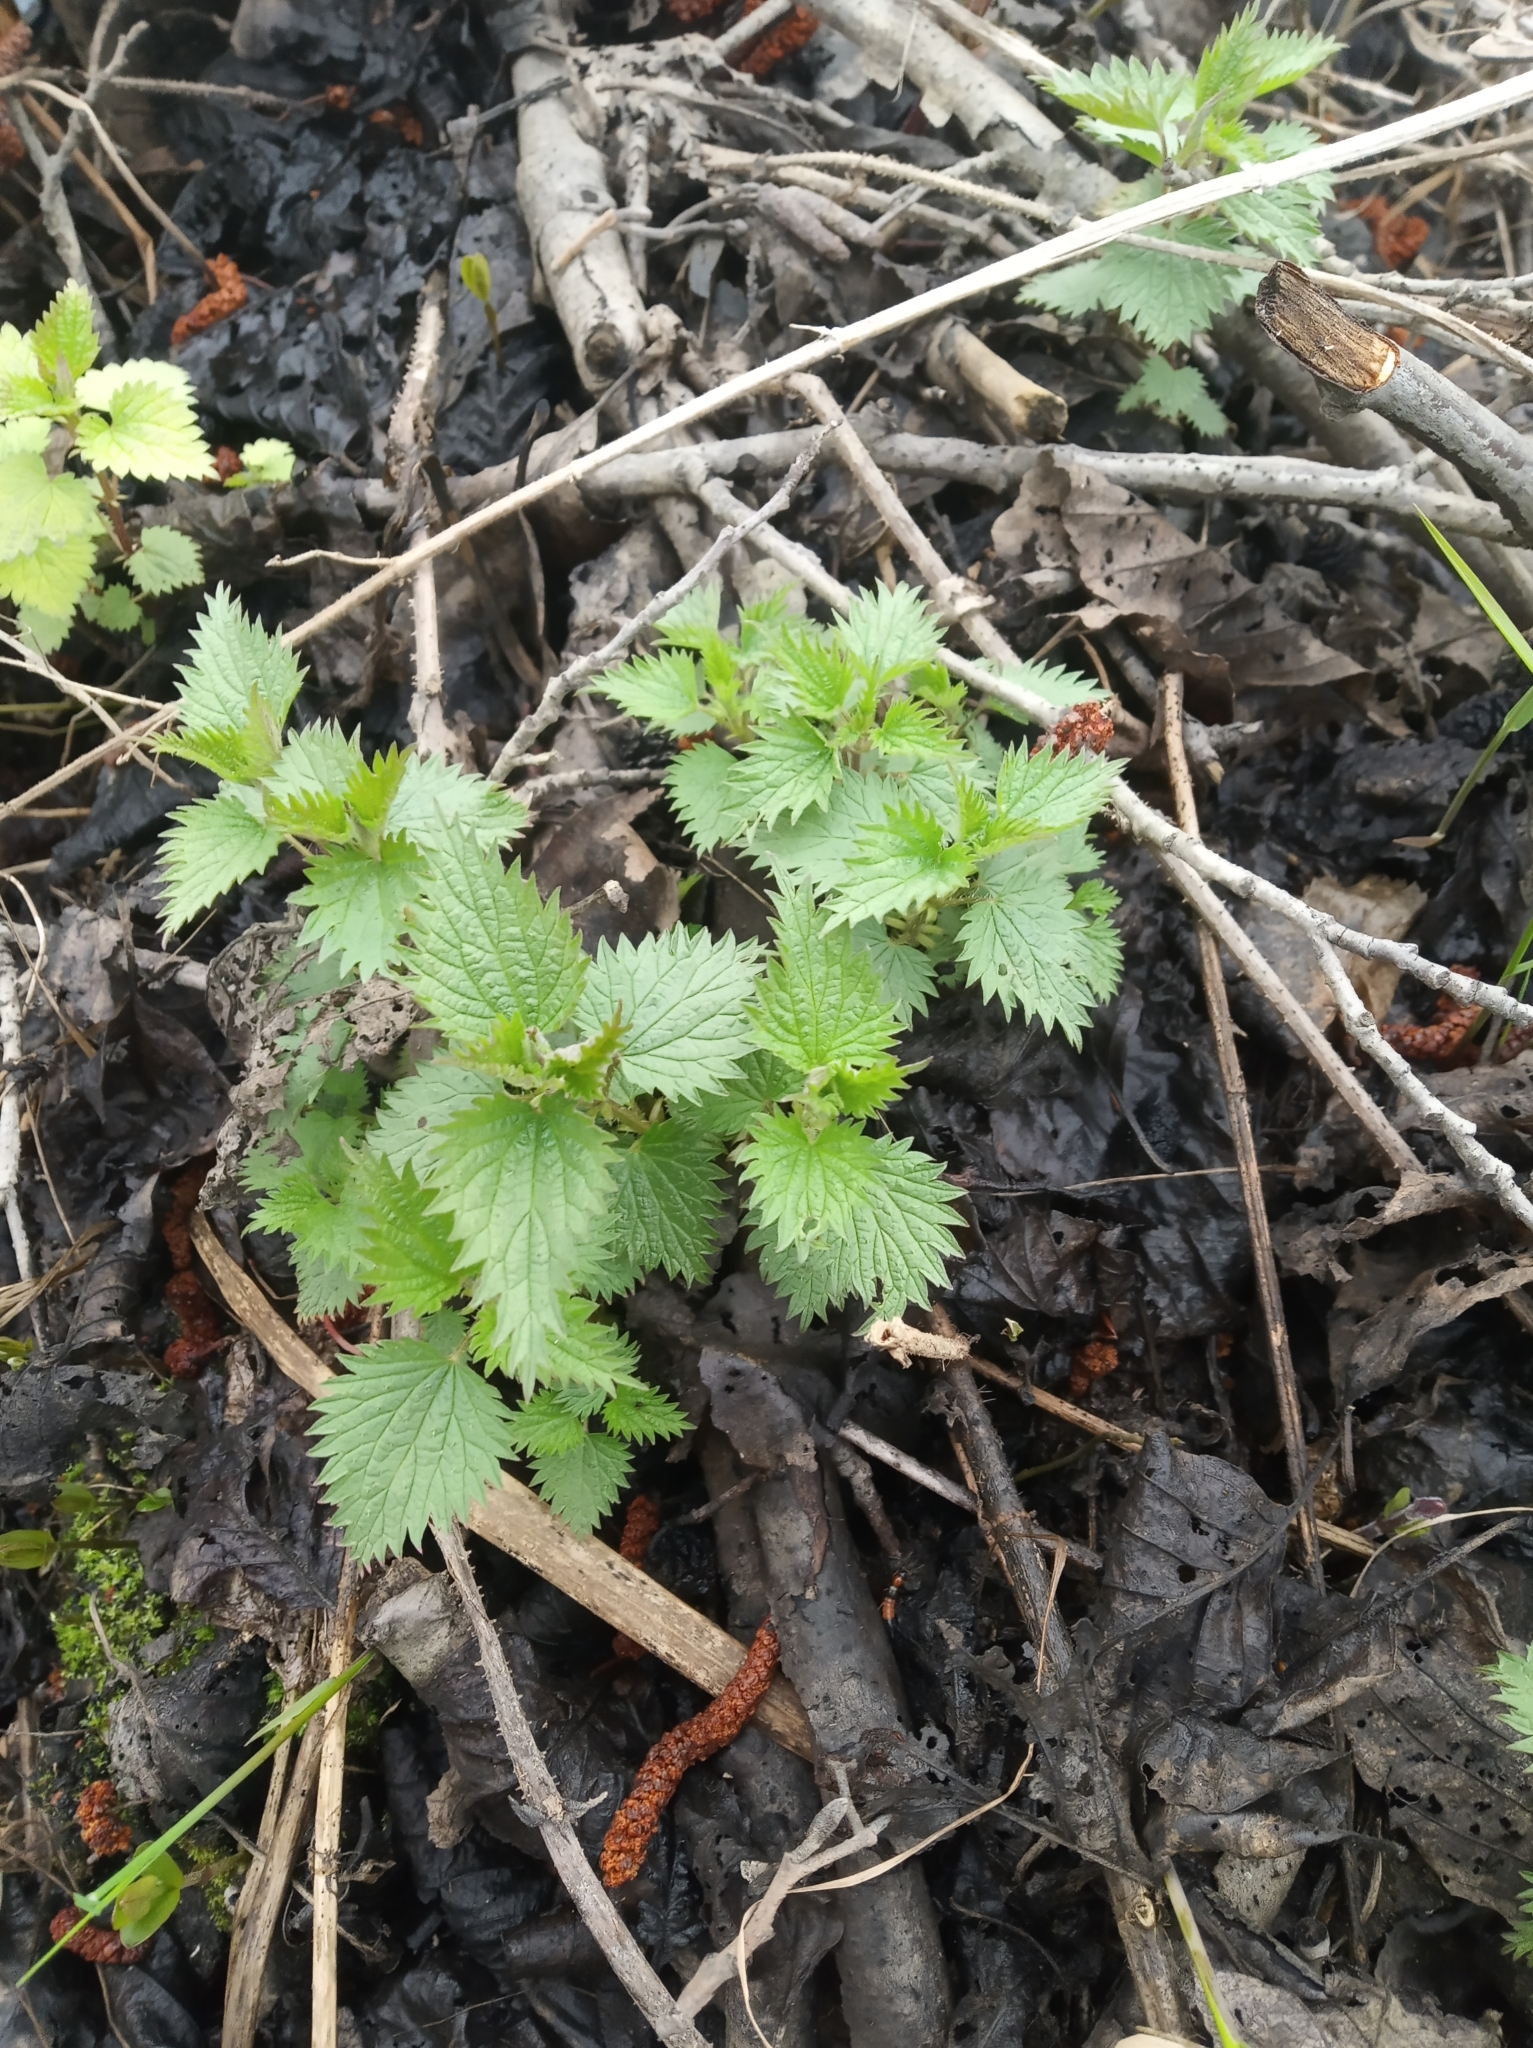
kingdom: Plantae
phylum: Tracheophyta
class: Magnoliopsida
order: Rosales
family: Urticaceae
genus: Urtica
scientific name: Urtica dioica
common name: Common nettle
